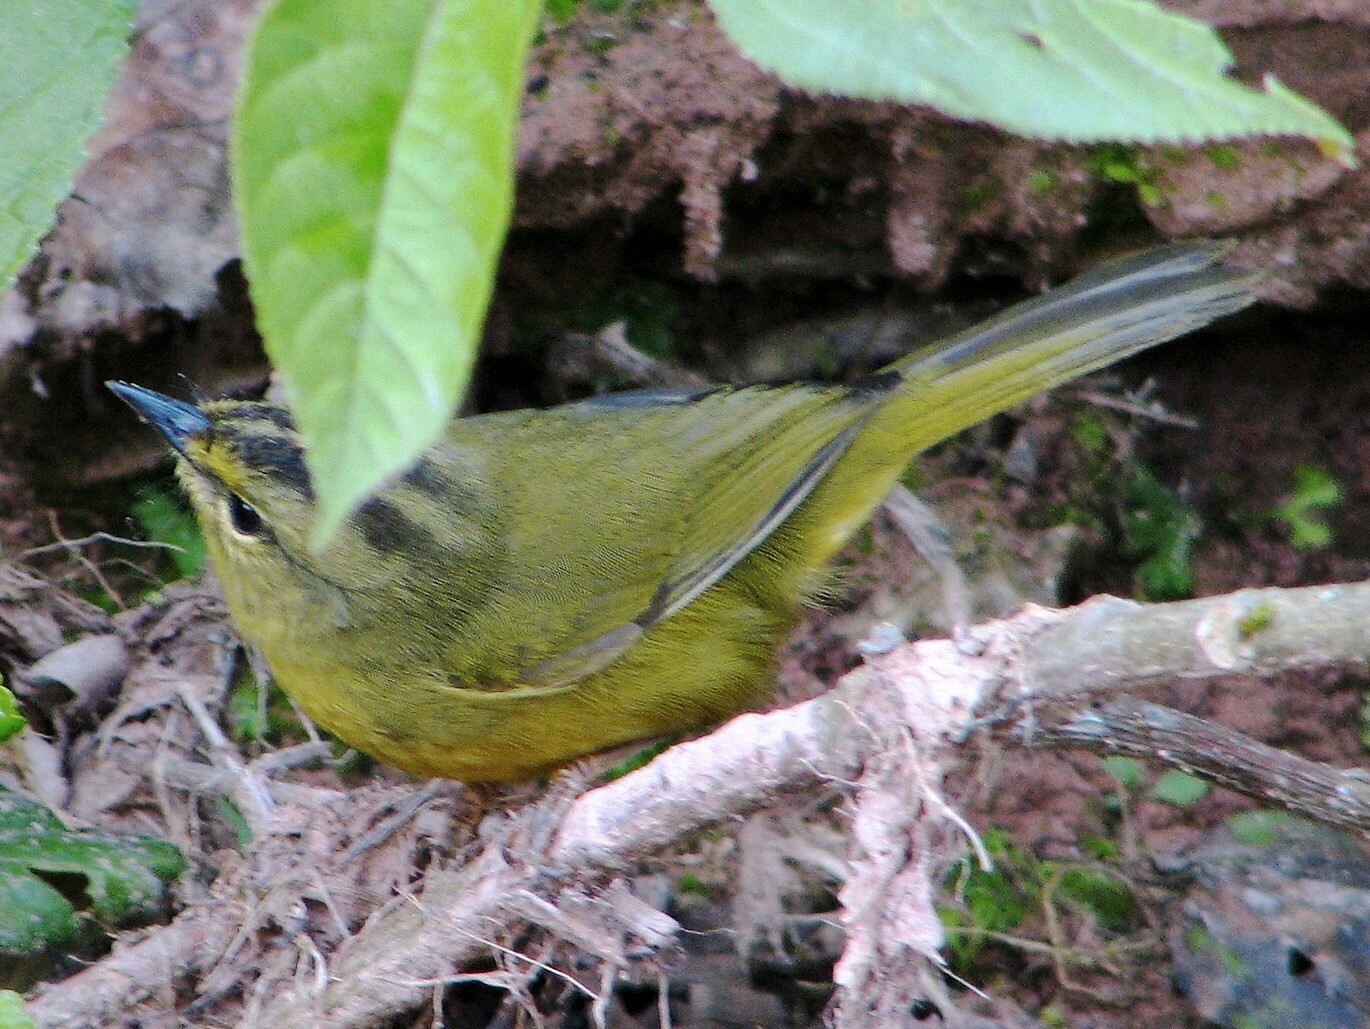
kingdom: Animalia
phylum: Chordata
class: Aves
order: Passeriformes
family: Parulidae
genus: Myiothlypis
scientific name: Myiothlypis bivittata
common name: Two-banded warbler
